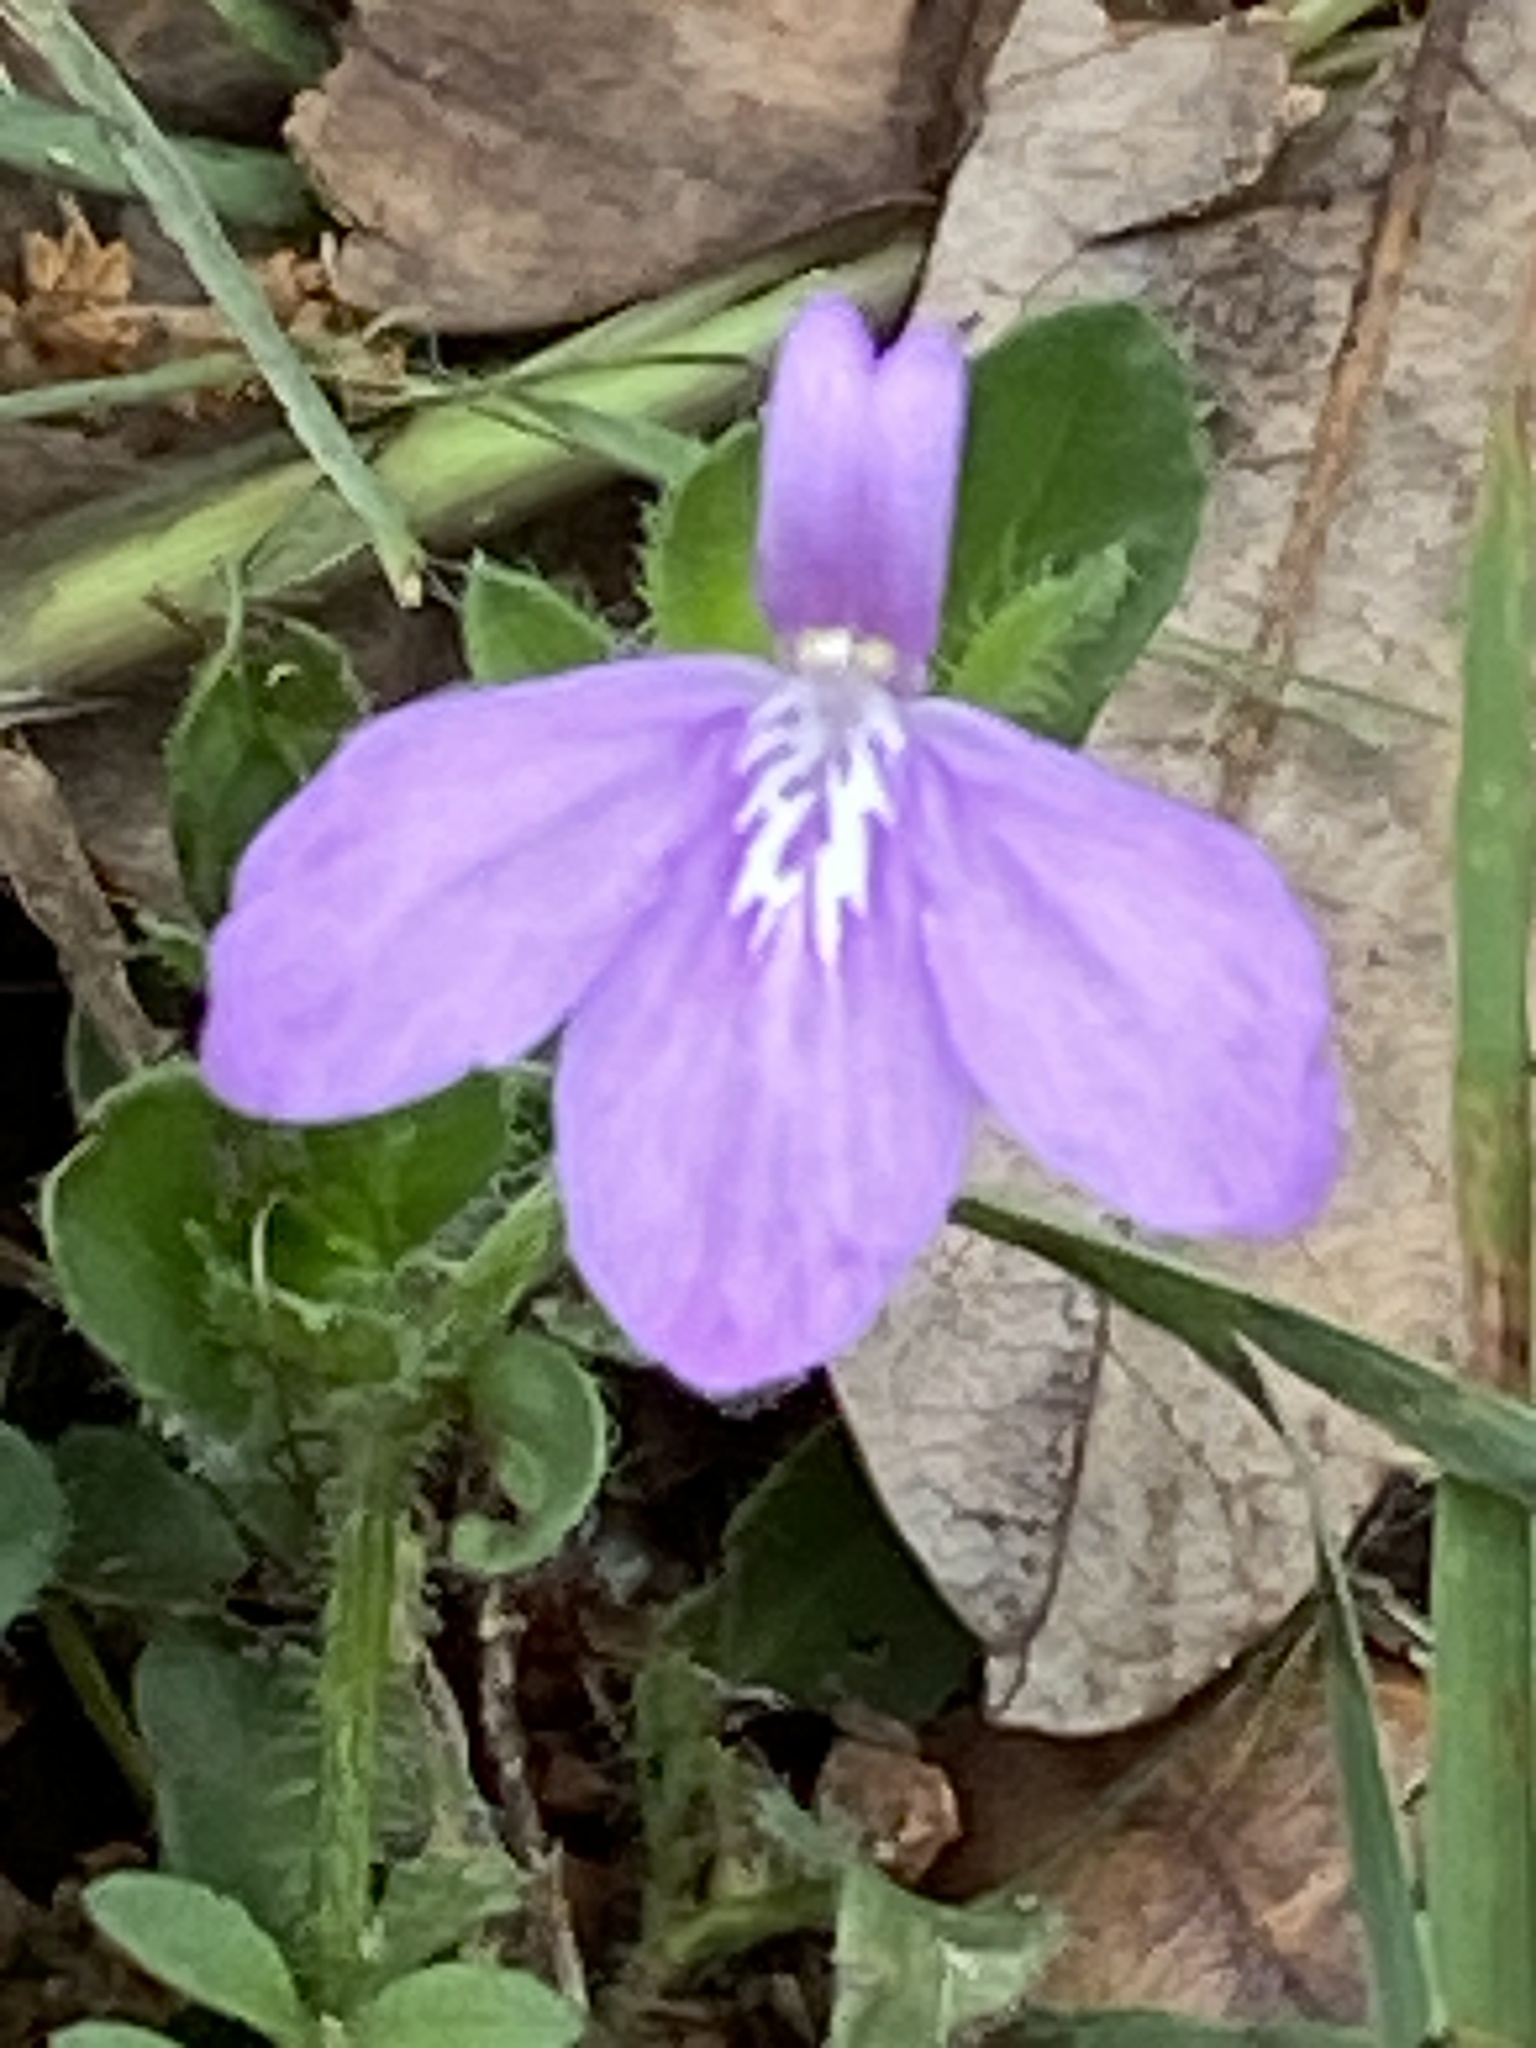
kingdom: Plantae
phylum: Tracheophyta
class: Magnoliopsida
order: Lamiales
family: Acanthaceae
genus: Justicia
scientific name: Justicia pilosella
